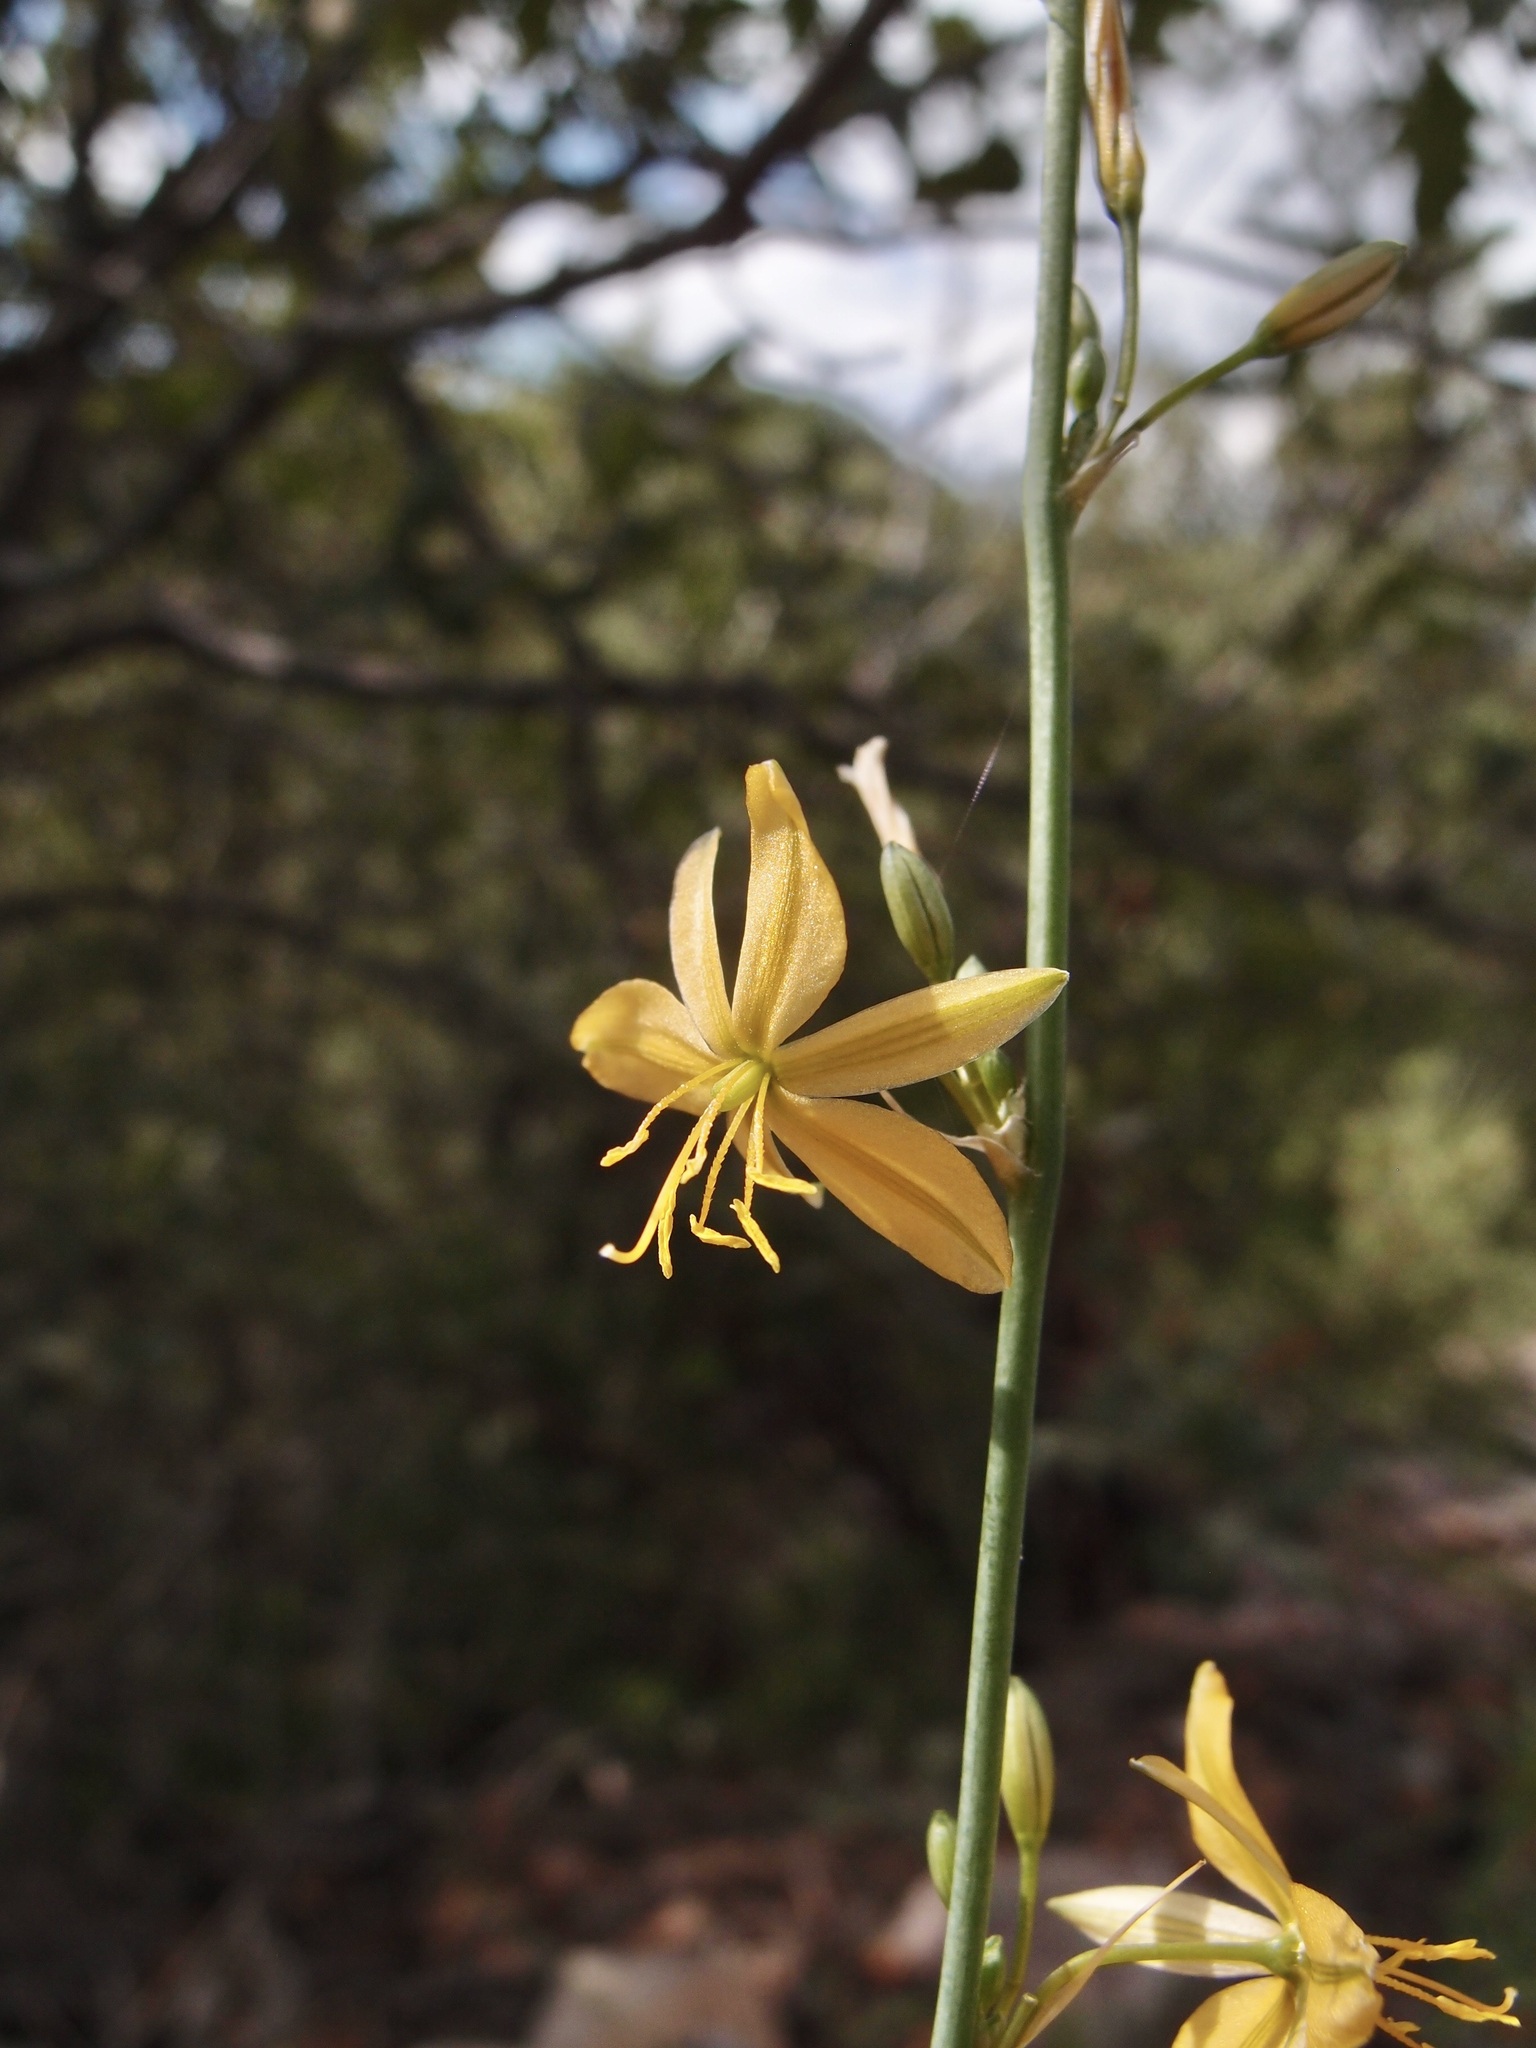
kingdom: Plantae
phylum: Tracheophyta
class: Liliopsida
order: Asparagales
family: Asparagaceae
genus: Echeandia
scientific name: Echeandia flavescens
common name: Amberlily
